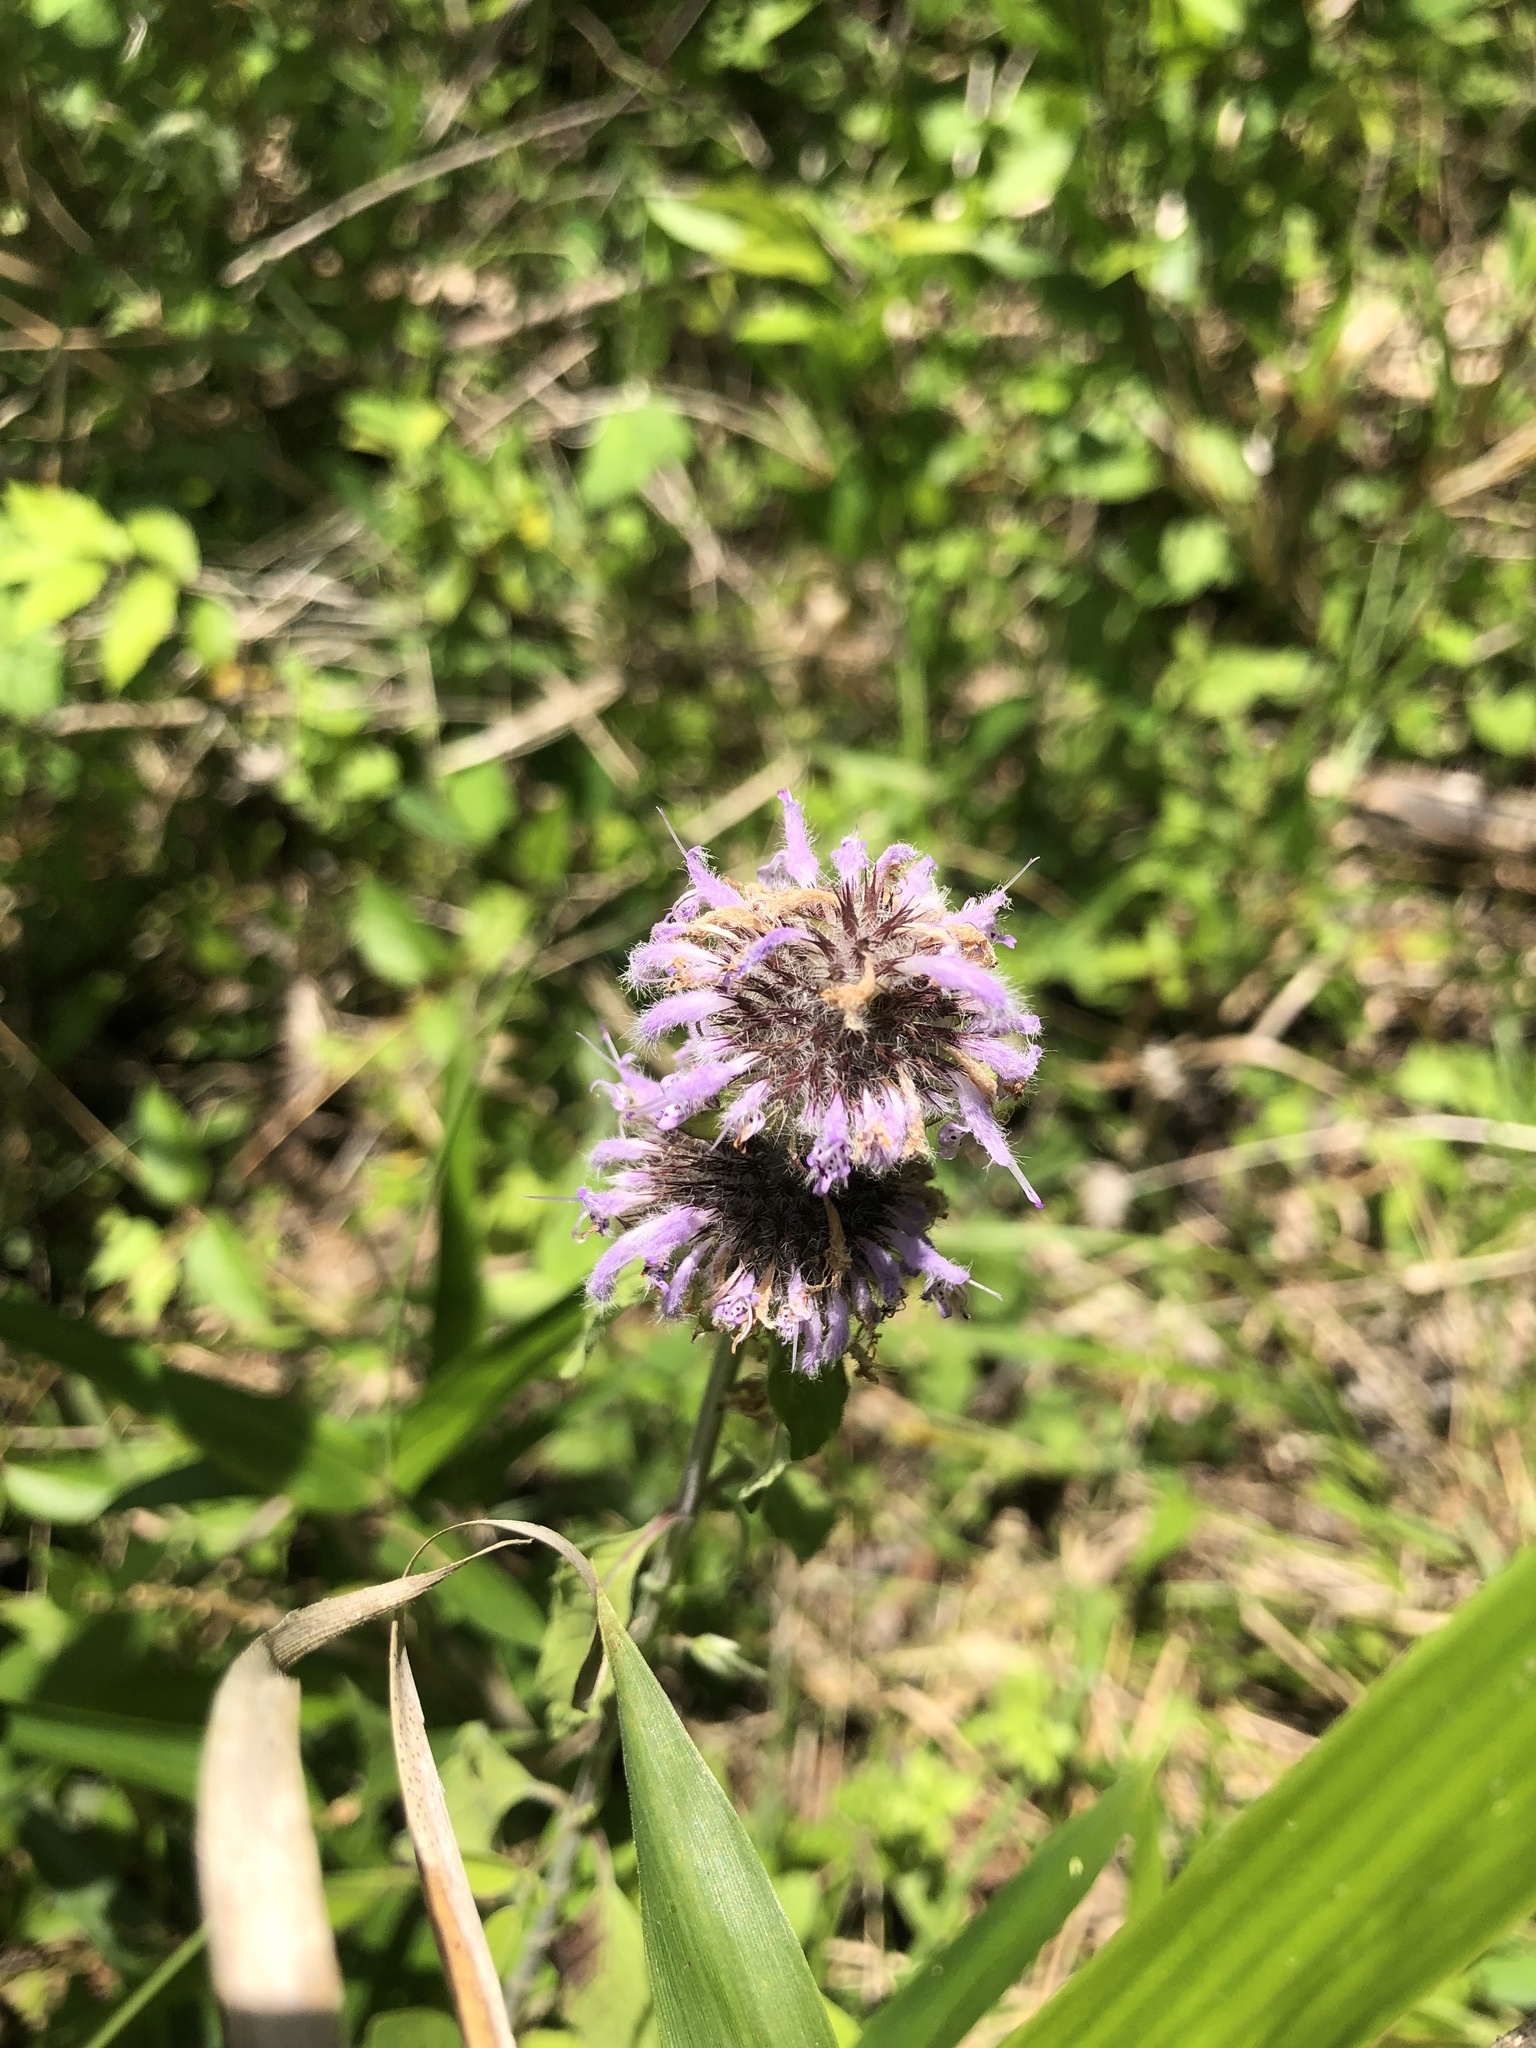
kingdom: Plantae
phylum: Tracheophyta
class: Magnoliopsida
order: Lamiales
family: Lamiaceae
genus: Blephilia
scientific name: Blephilia ciliata
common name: Downy blephilia
